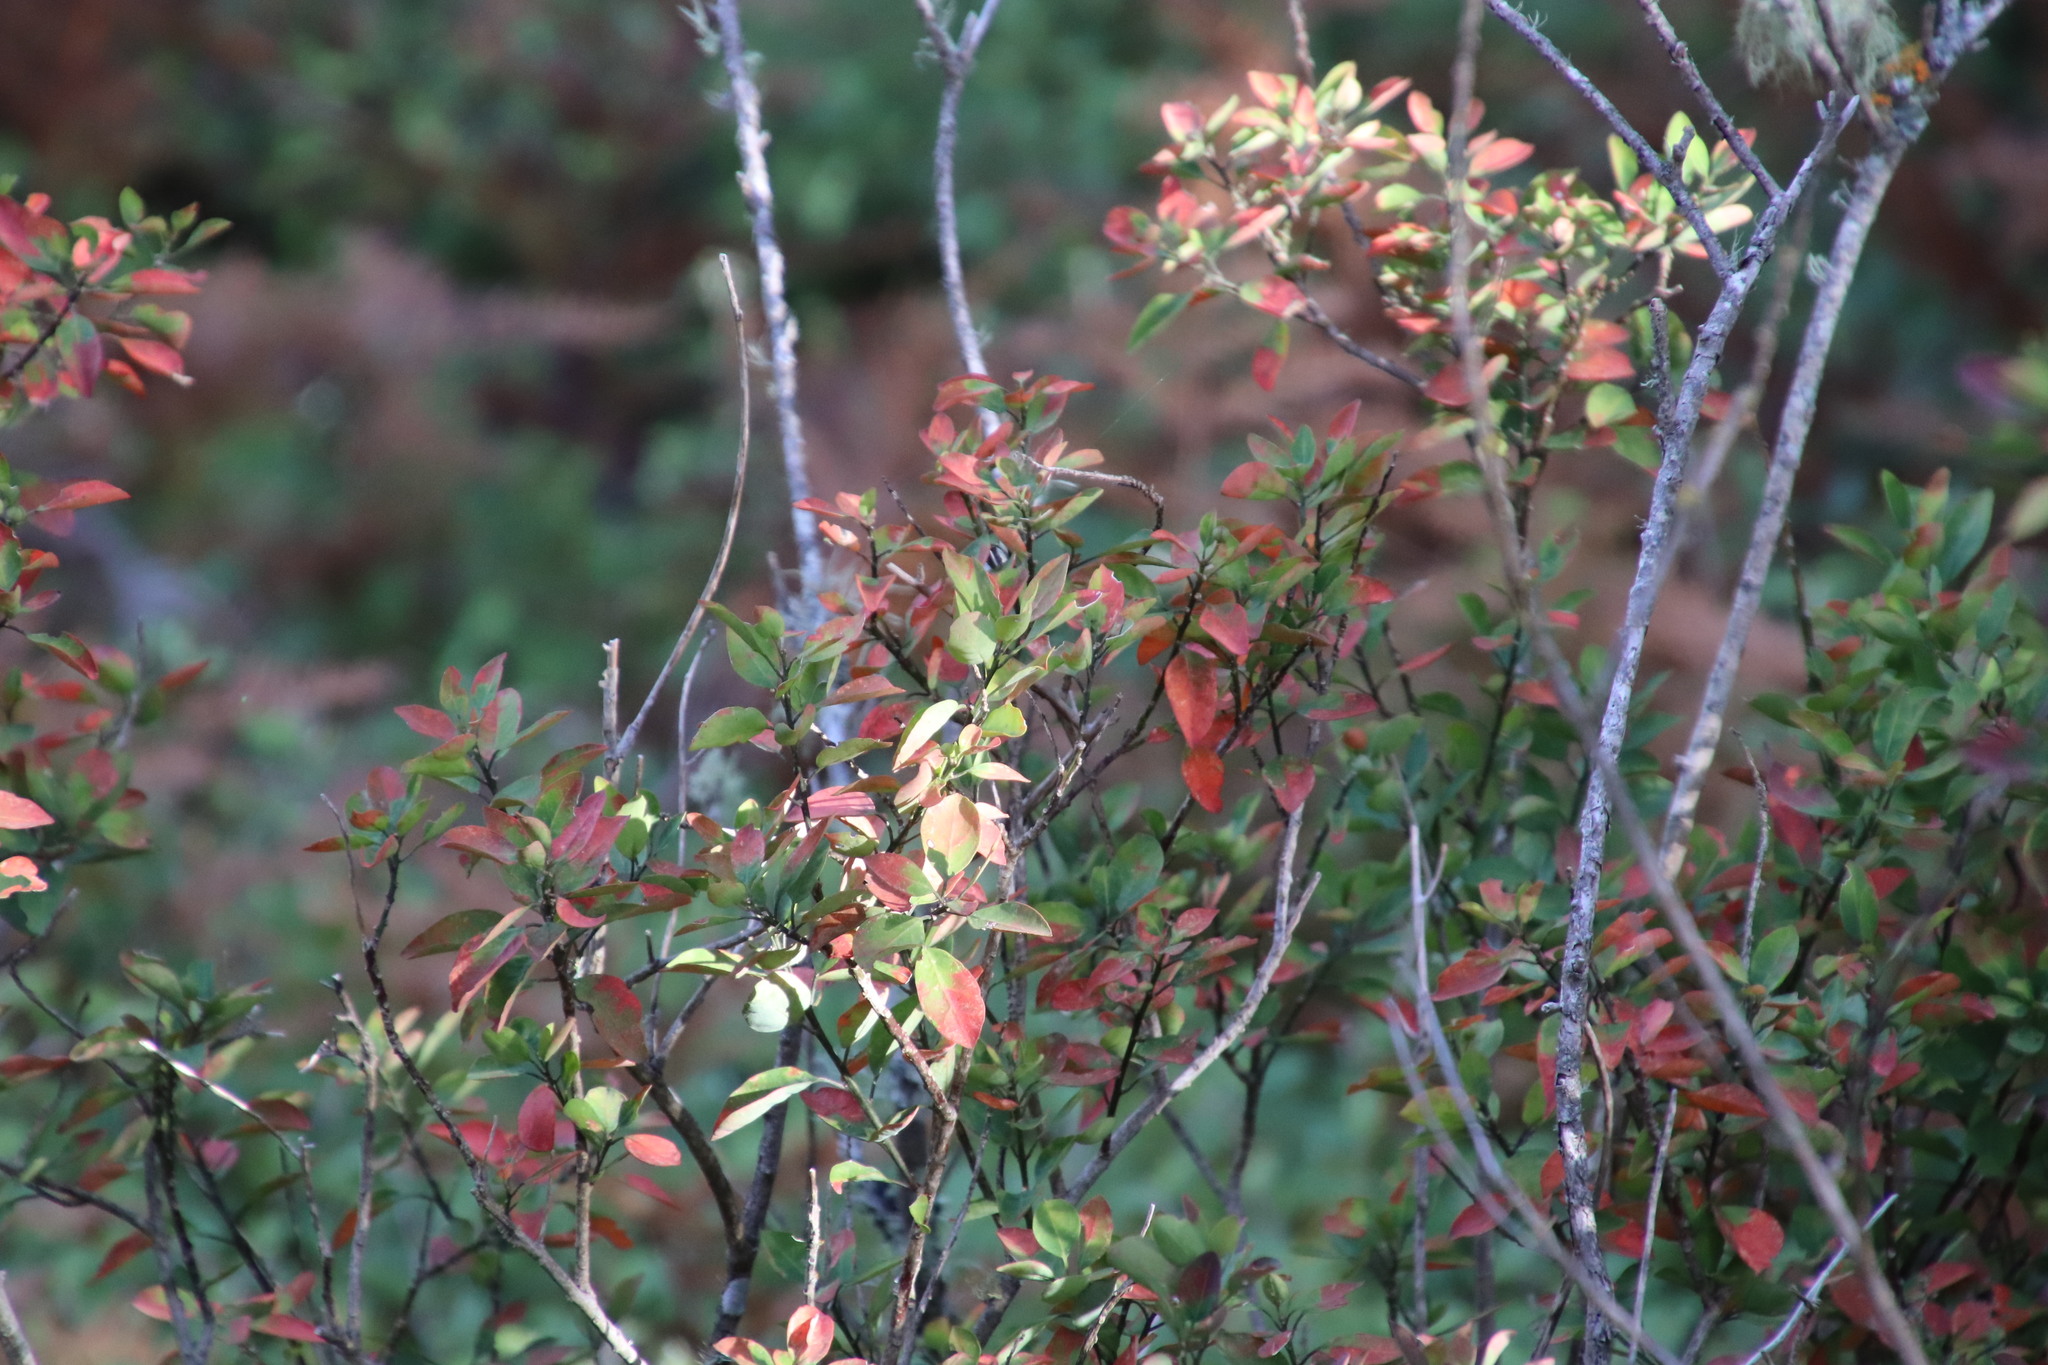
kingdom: Plantae
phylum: Tracheophyta
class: Magnoliopsida
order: Malpighiales
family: Peraceae
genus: Clutia
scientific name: Clutia pulchella
